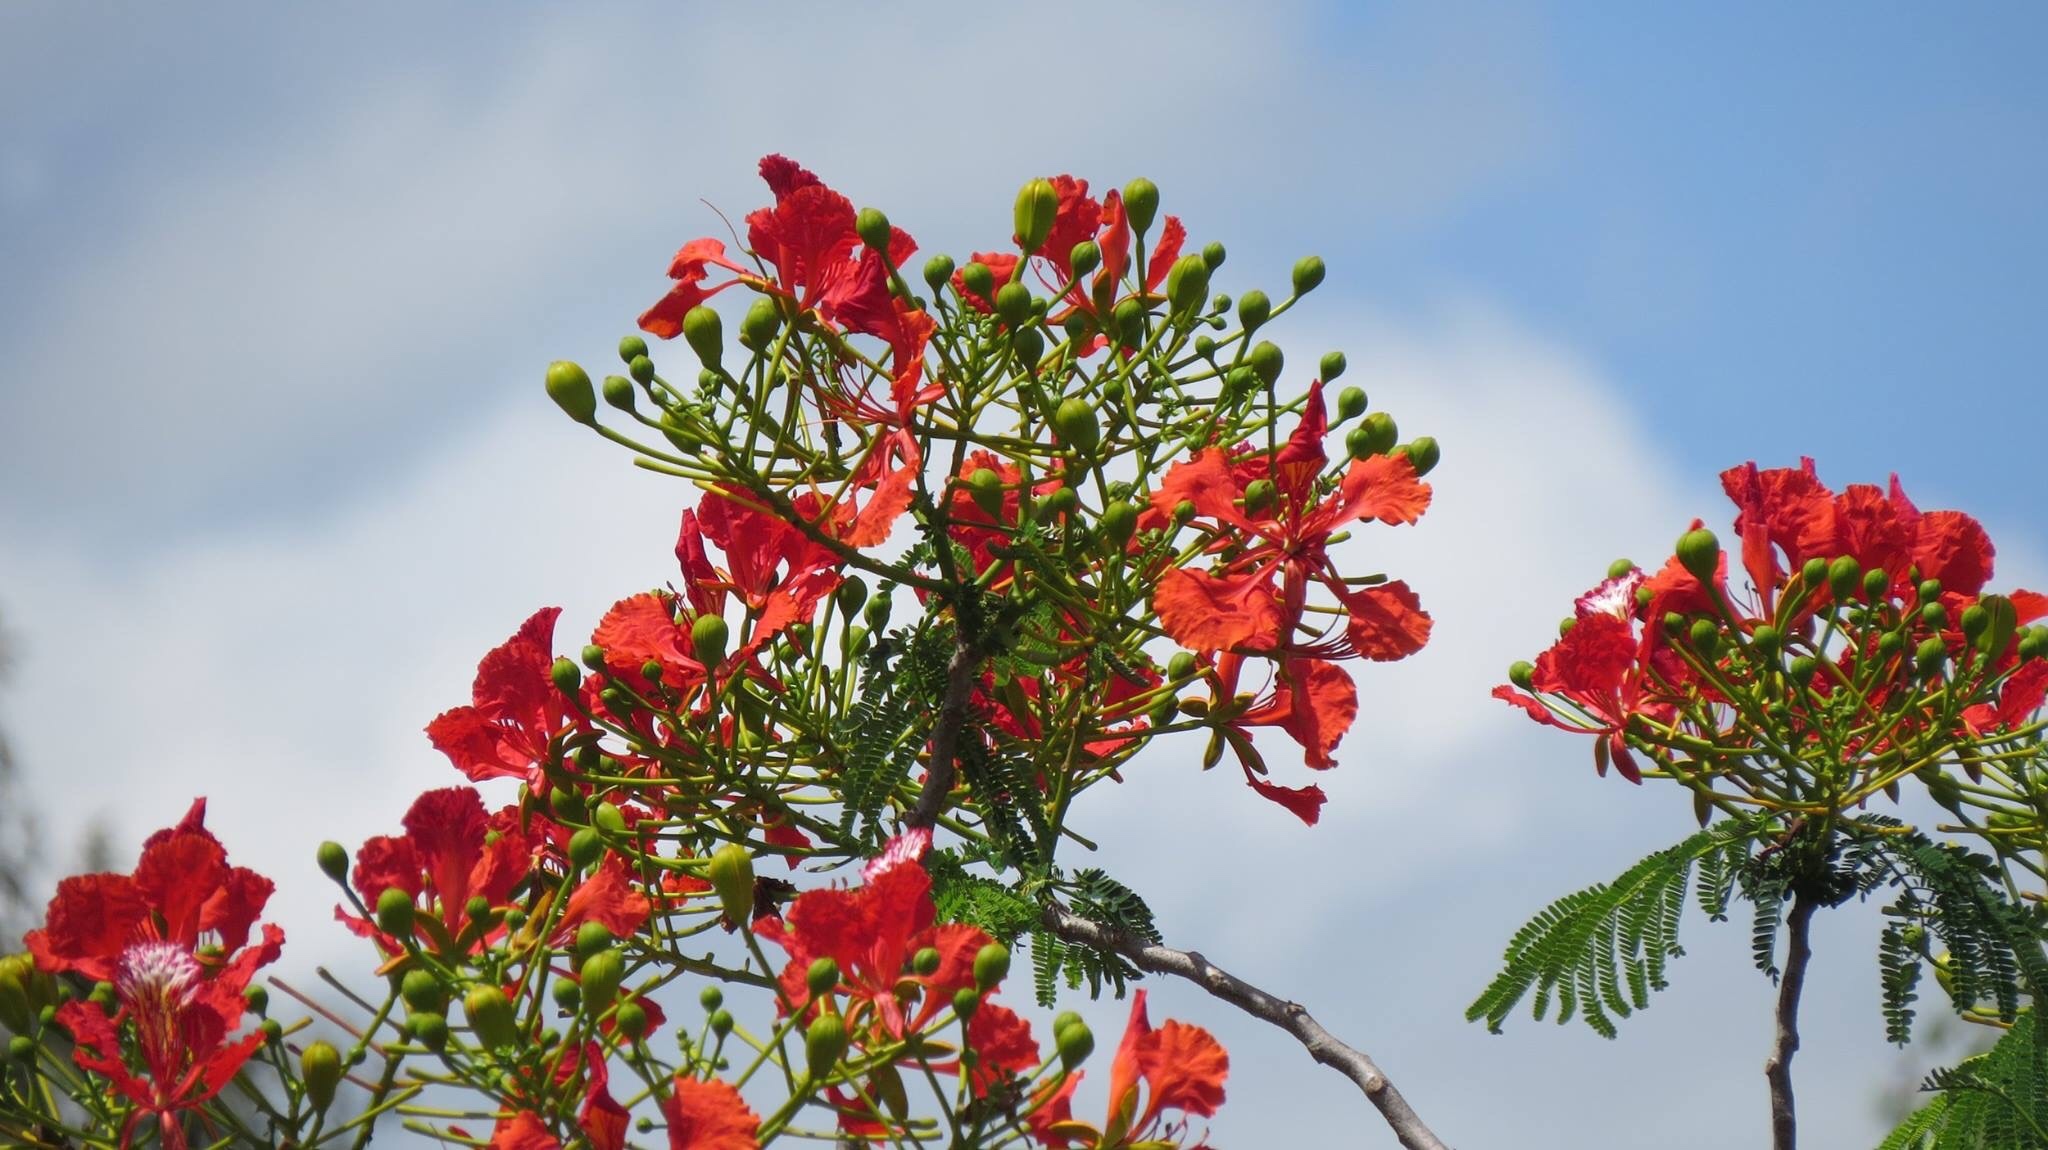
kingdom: Plantae
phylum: Tracheophyta
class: Magnoliopsida
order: Fabales
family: Fabaceae
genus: Delonix
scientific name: Delonix regia
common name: Royal poinciana
